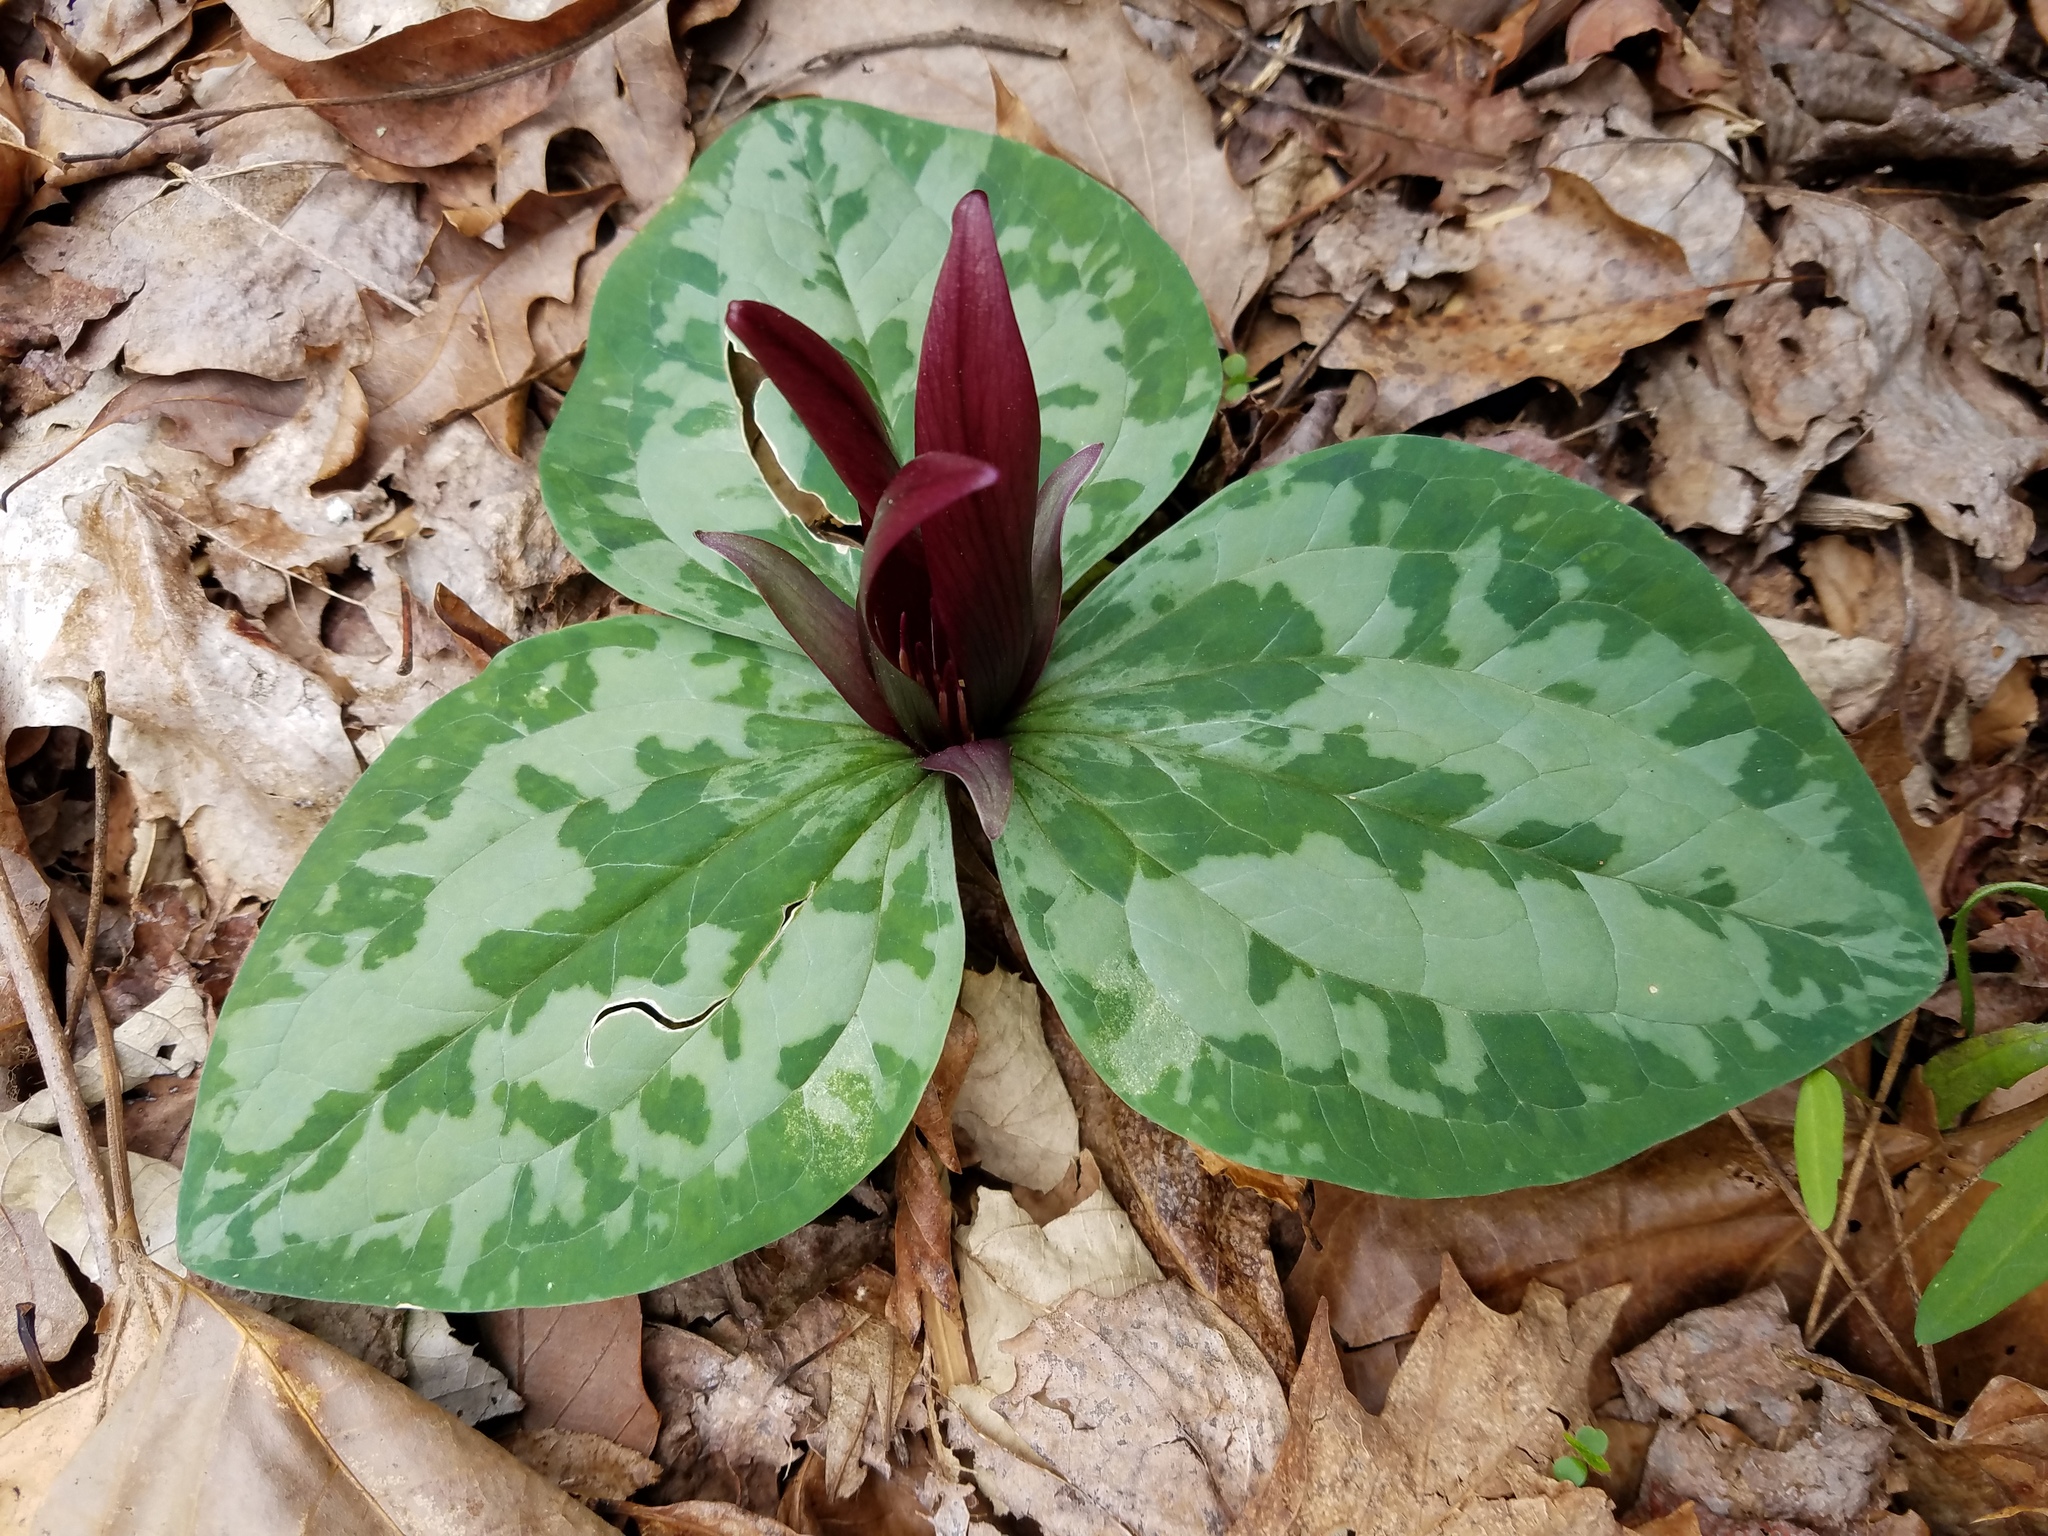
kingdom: Plantae
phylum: Tracheophyta
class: Liliopsida
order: Liliales
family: Melanthiaceae
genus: Trillium
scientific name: Trillium decumbens
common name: Decumbent trillium
